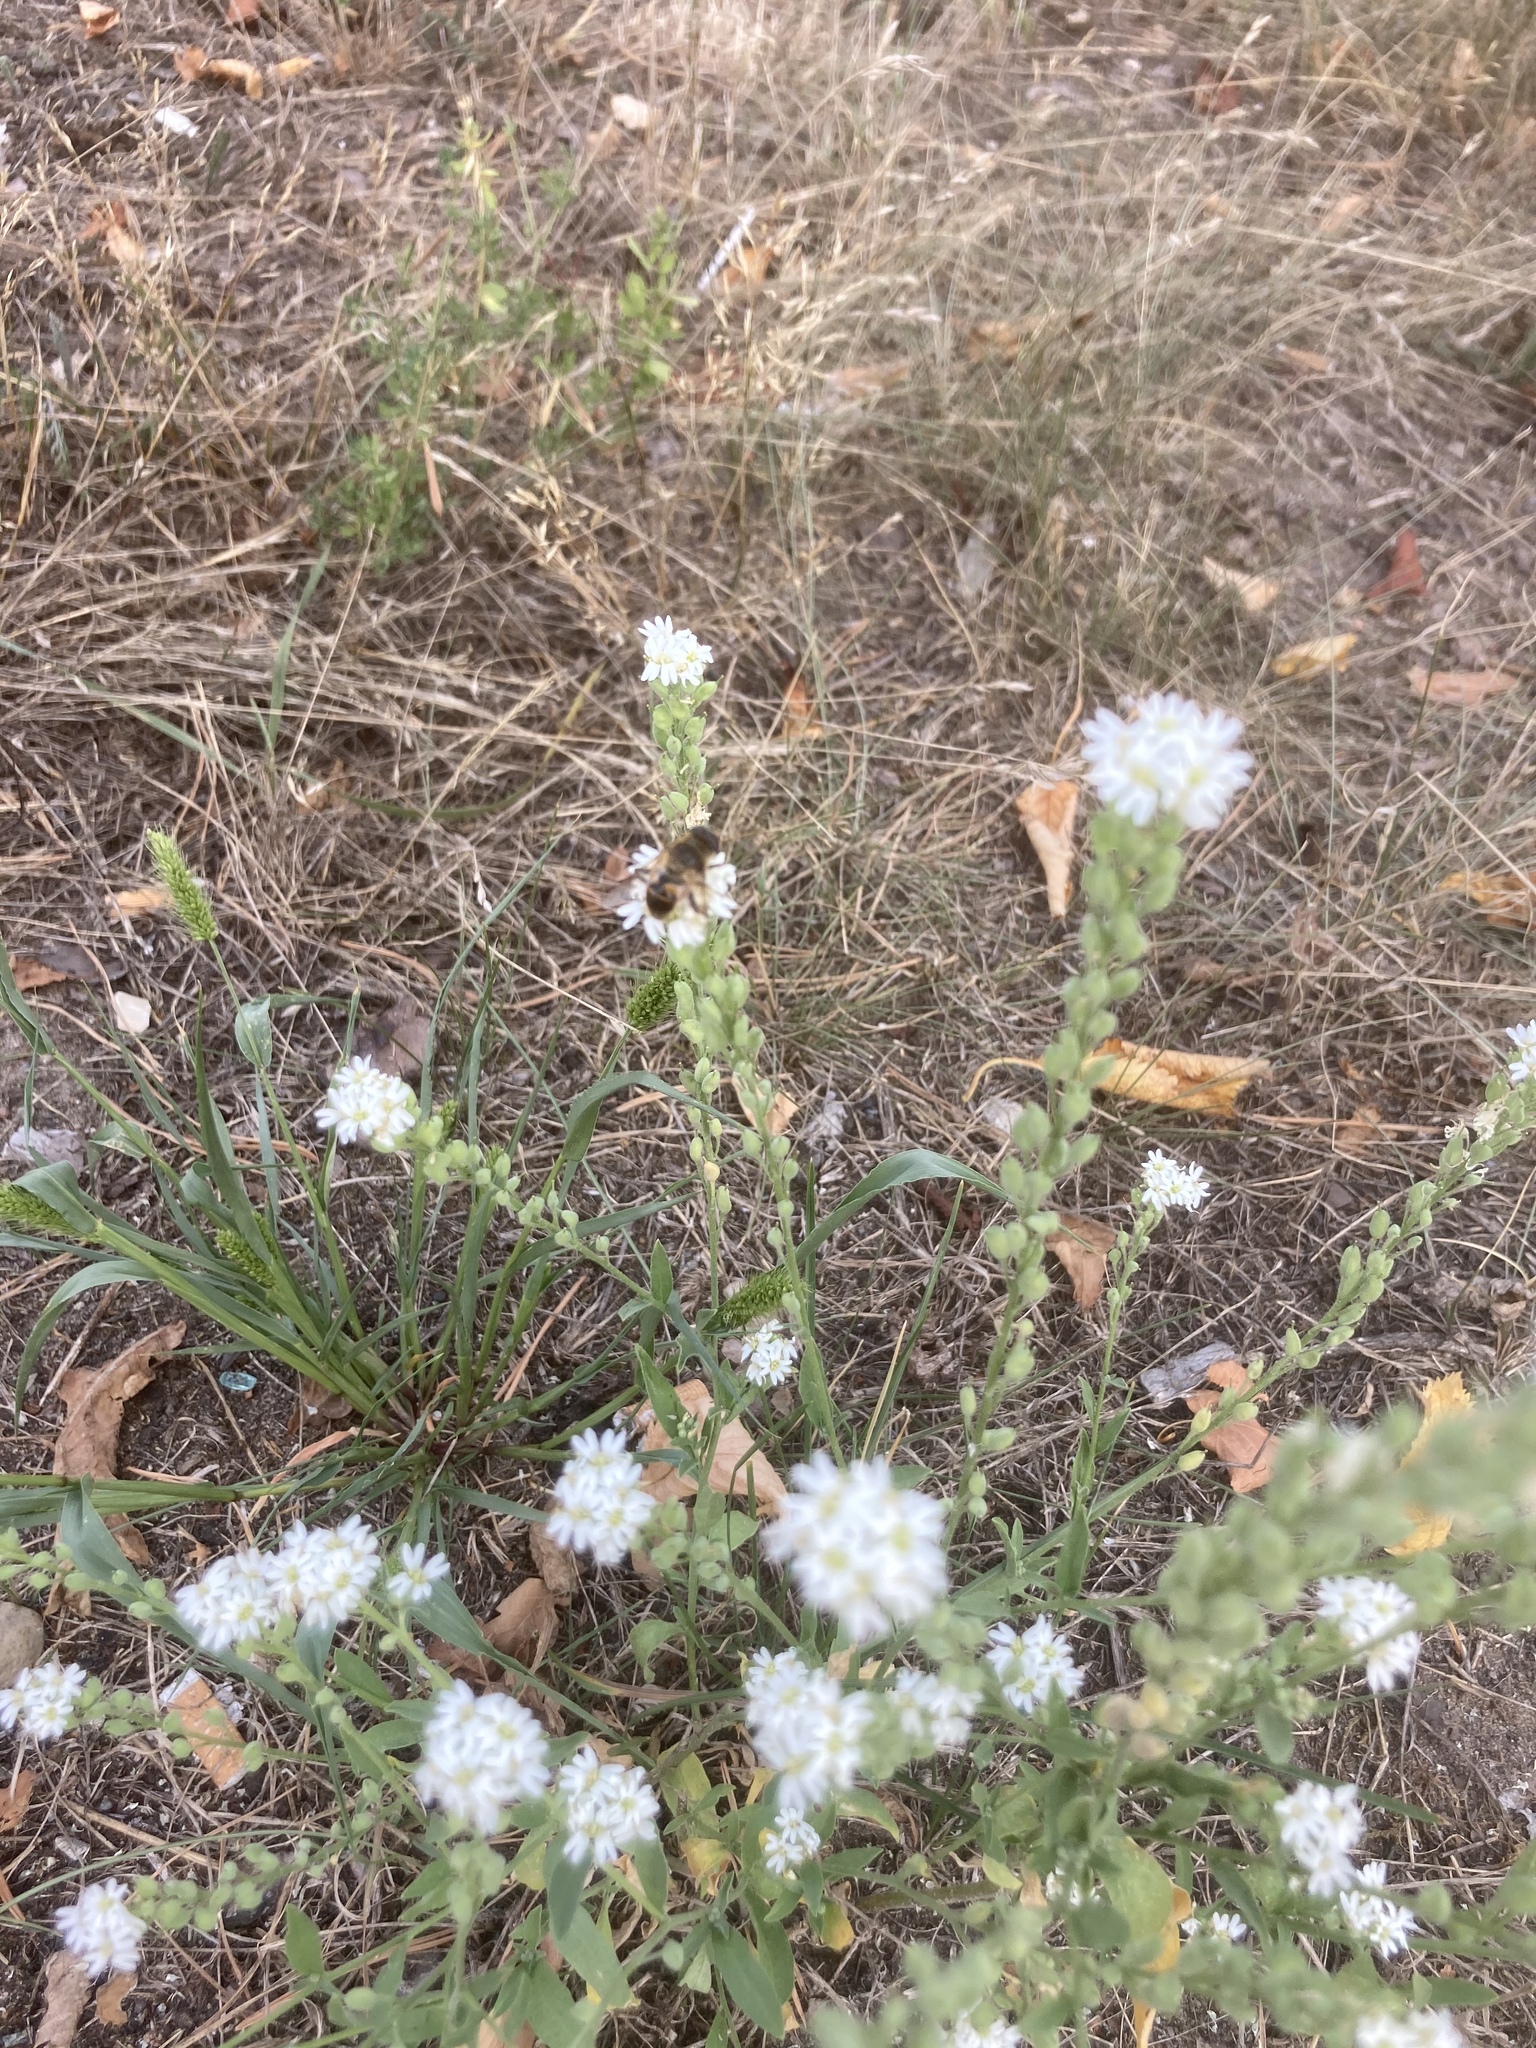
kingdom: Plantae
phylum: Tracheophyta
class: Magnoliopsida
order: Brassicales
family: Brassicaceae
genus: Berteroa
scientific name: Berteroa incana
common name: Hoary alison
